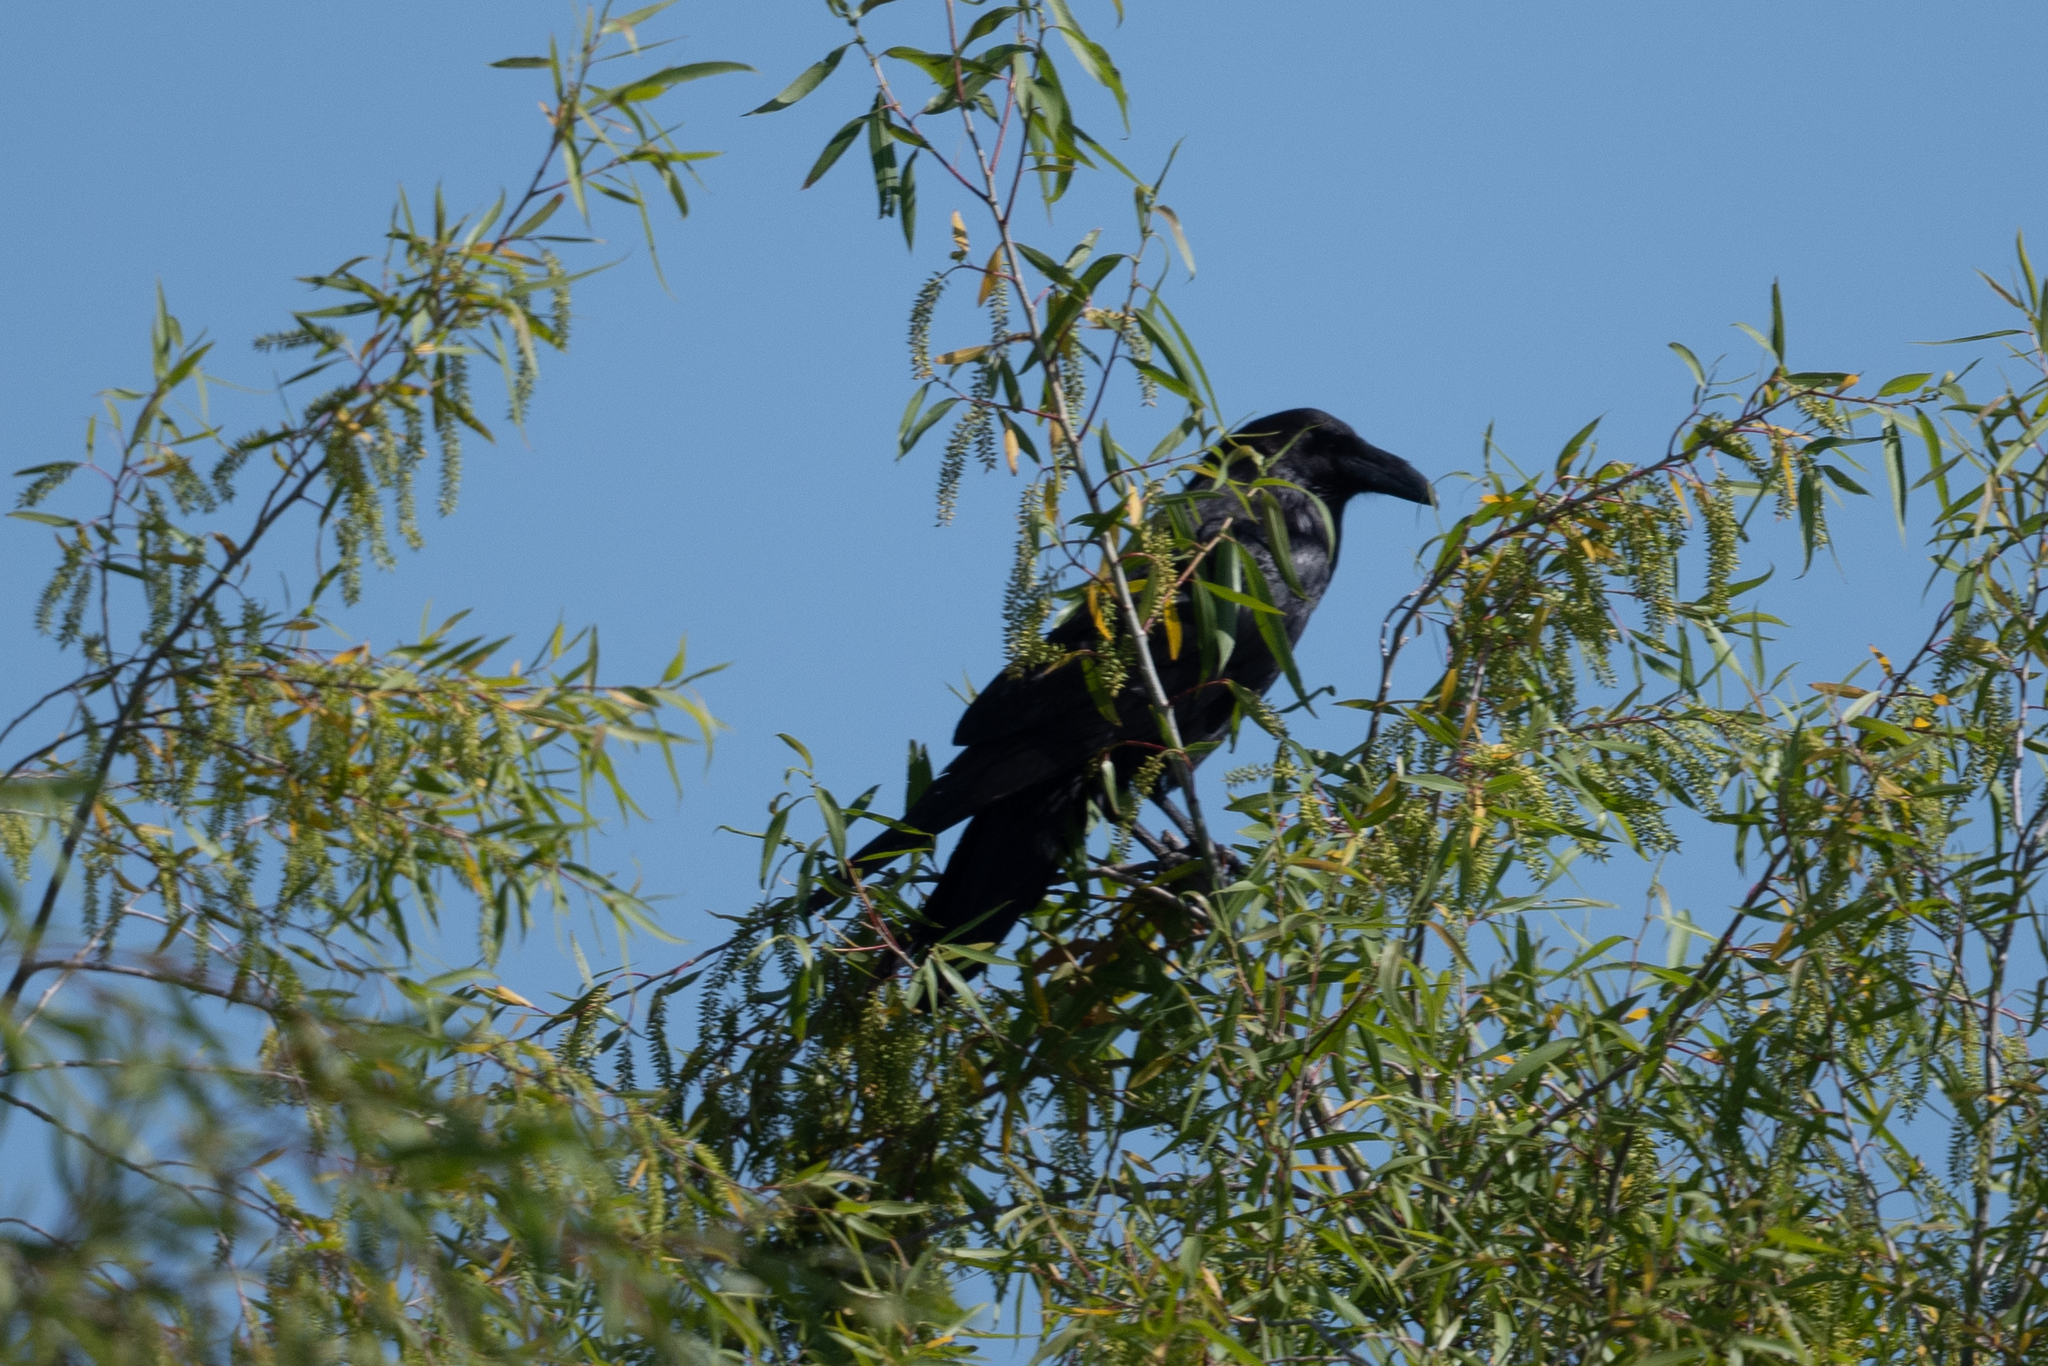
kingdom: Animalia
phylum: Chordata
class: Aves
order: Passeriformes
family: Corvidae
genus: Corvus
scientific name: Corvus corax
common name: Common raven
